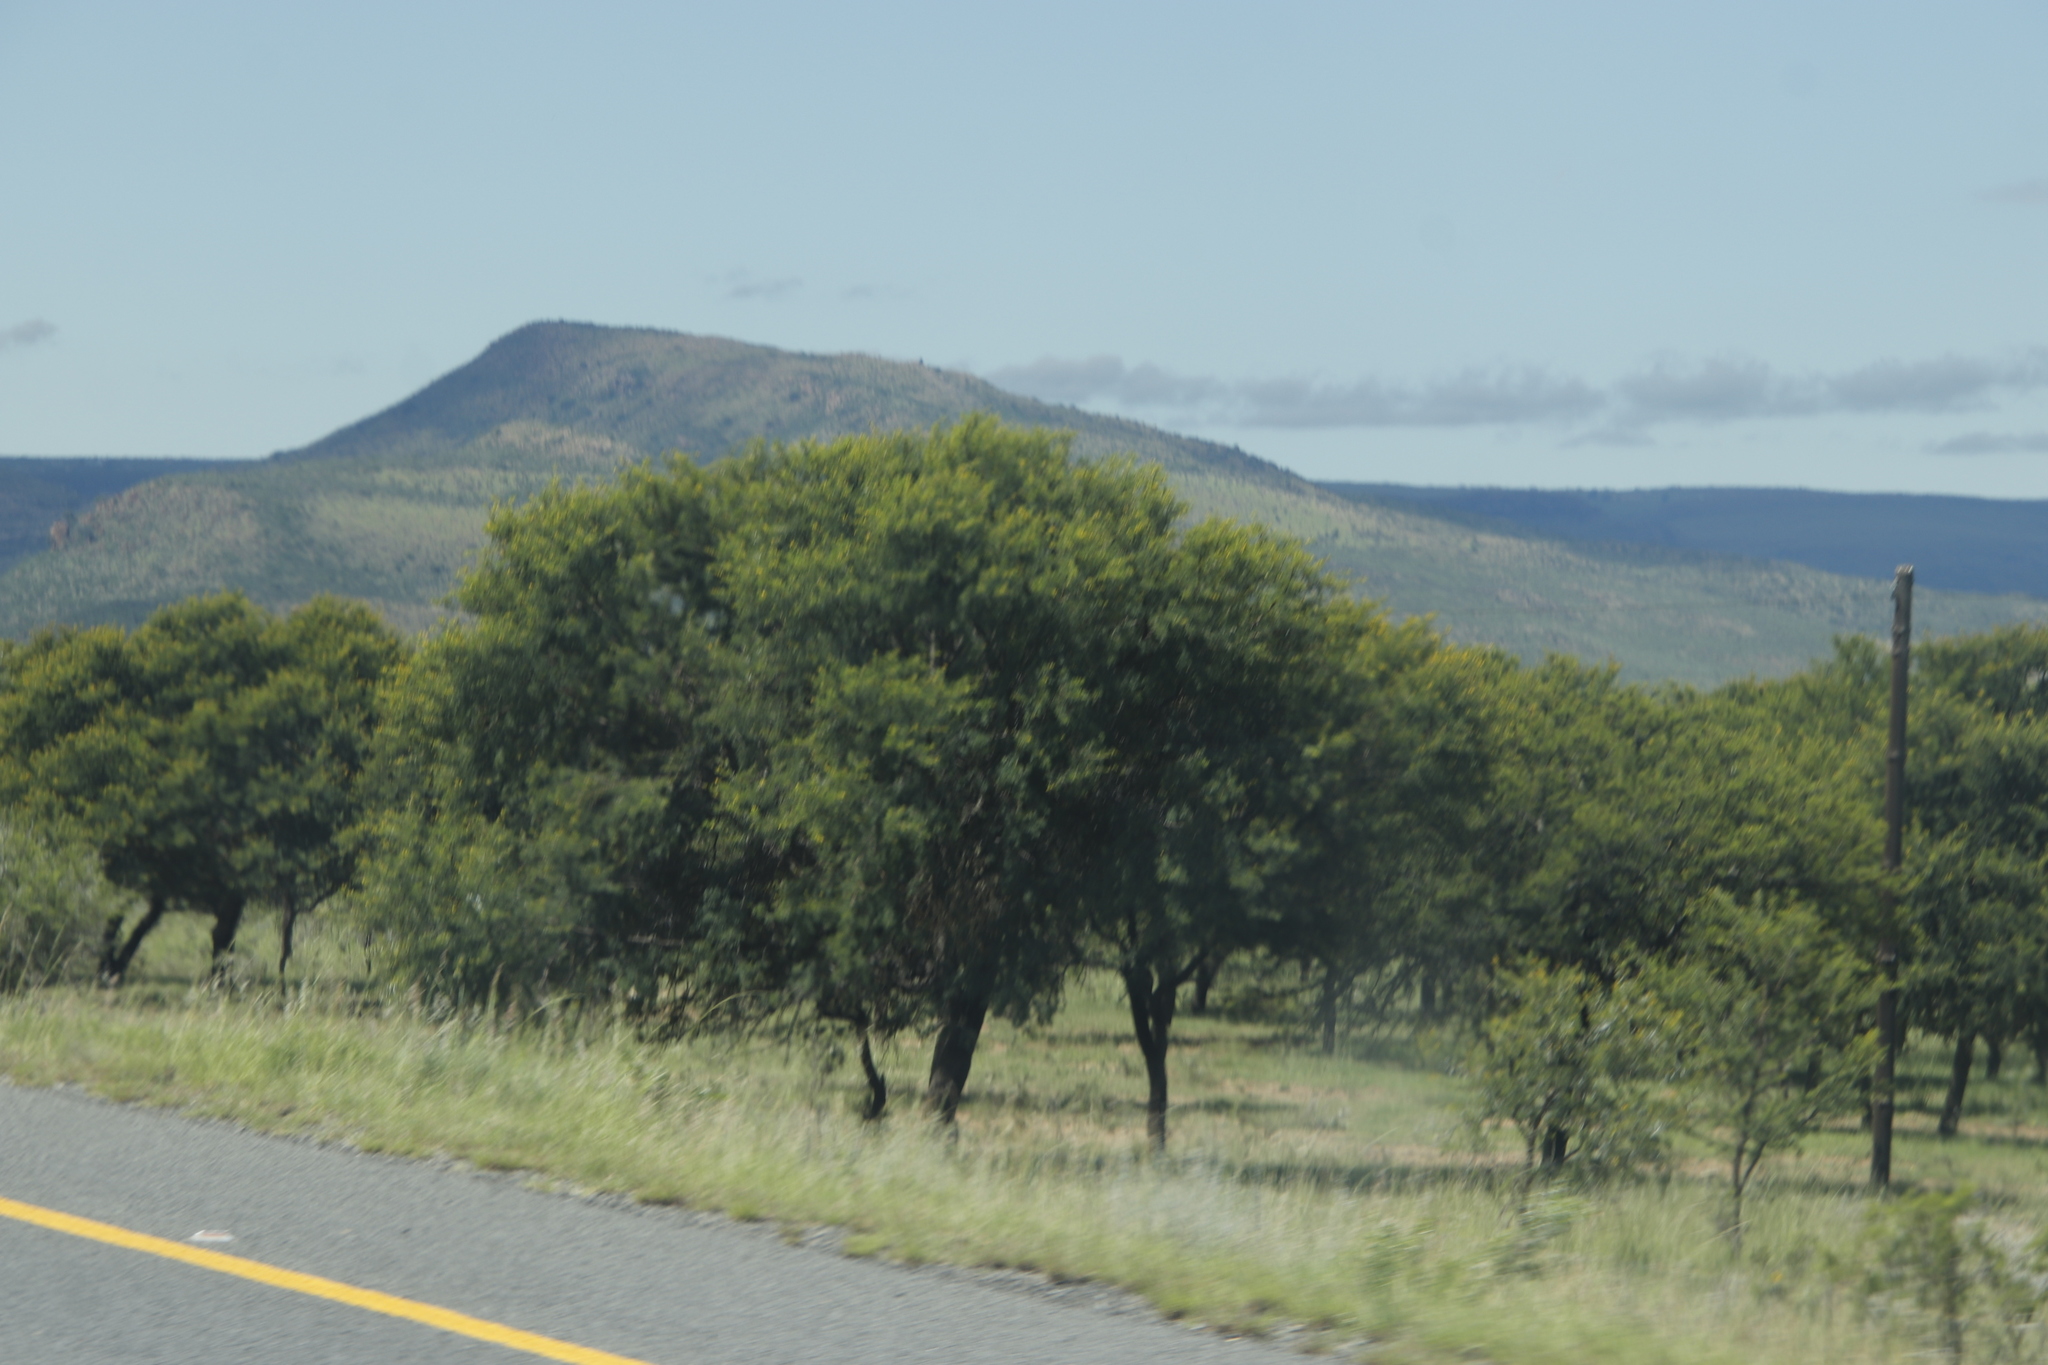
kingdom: Plantae
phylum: Tracheophyta
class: Magnoliopsida
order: Fabales
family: Fabaceae
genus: Vachellia
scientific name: Vachellia karroo
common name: Sweet thorn
